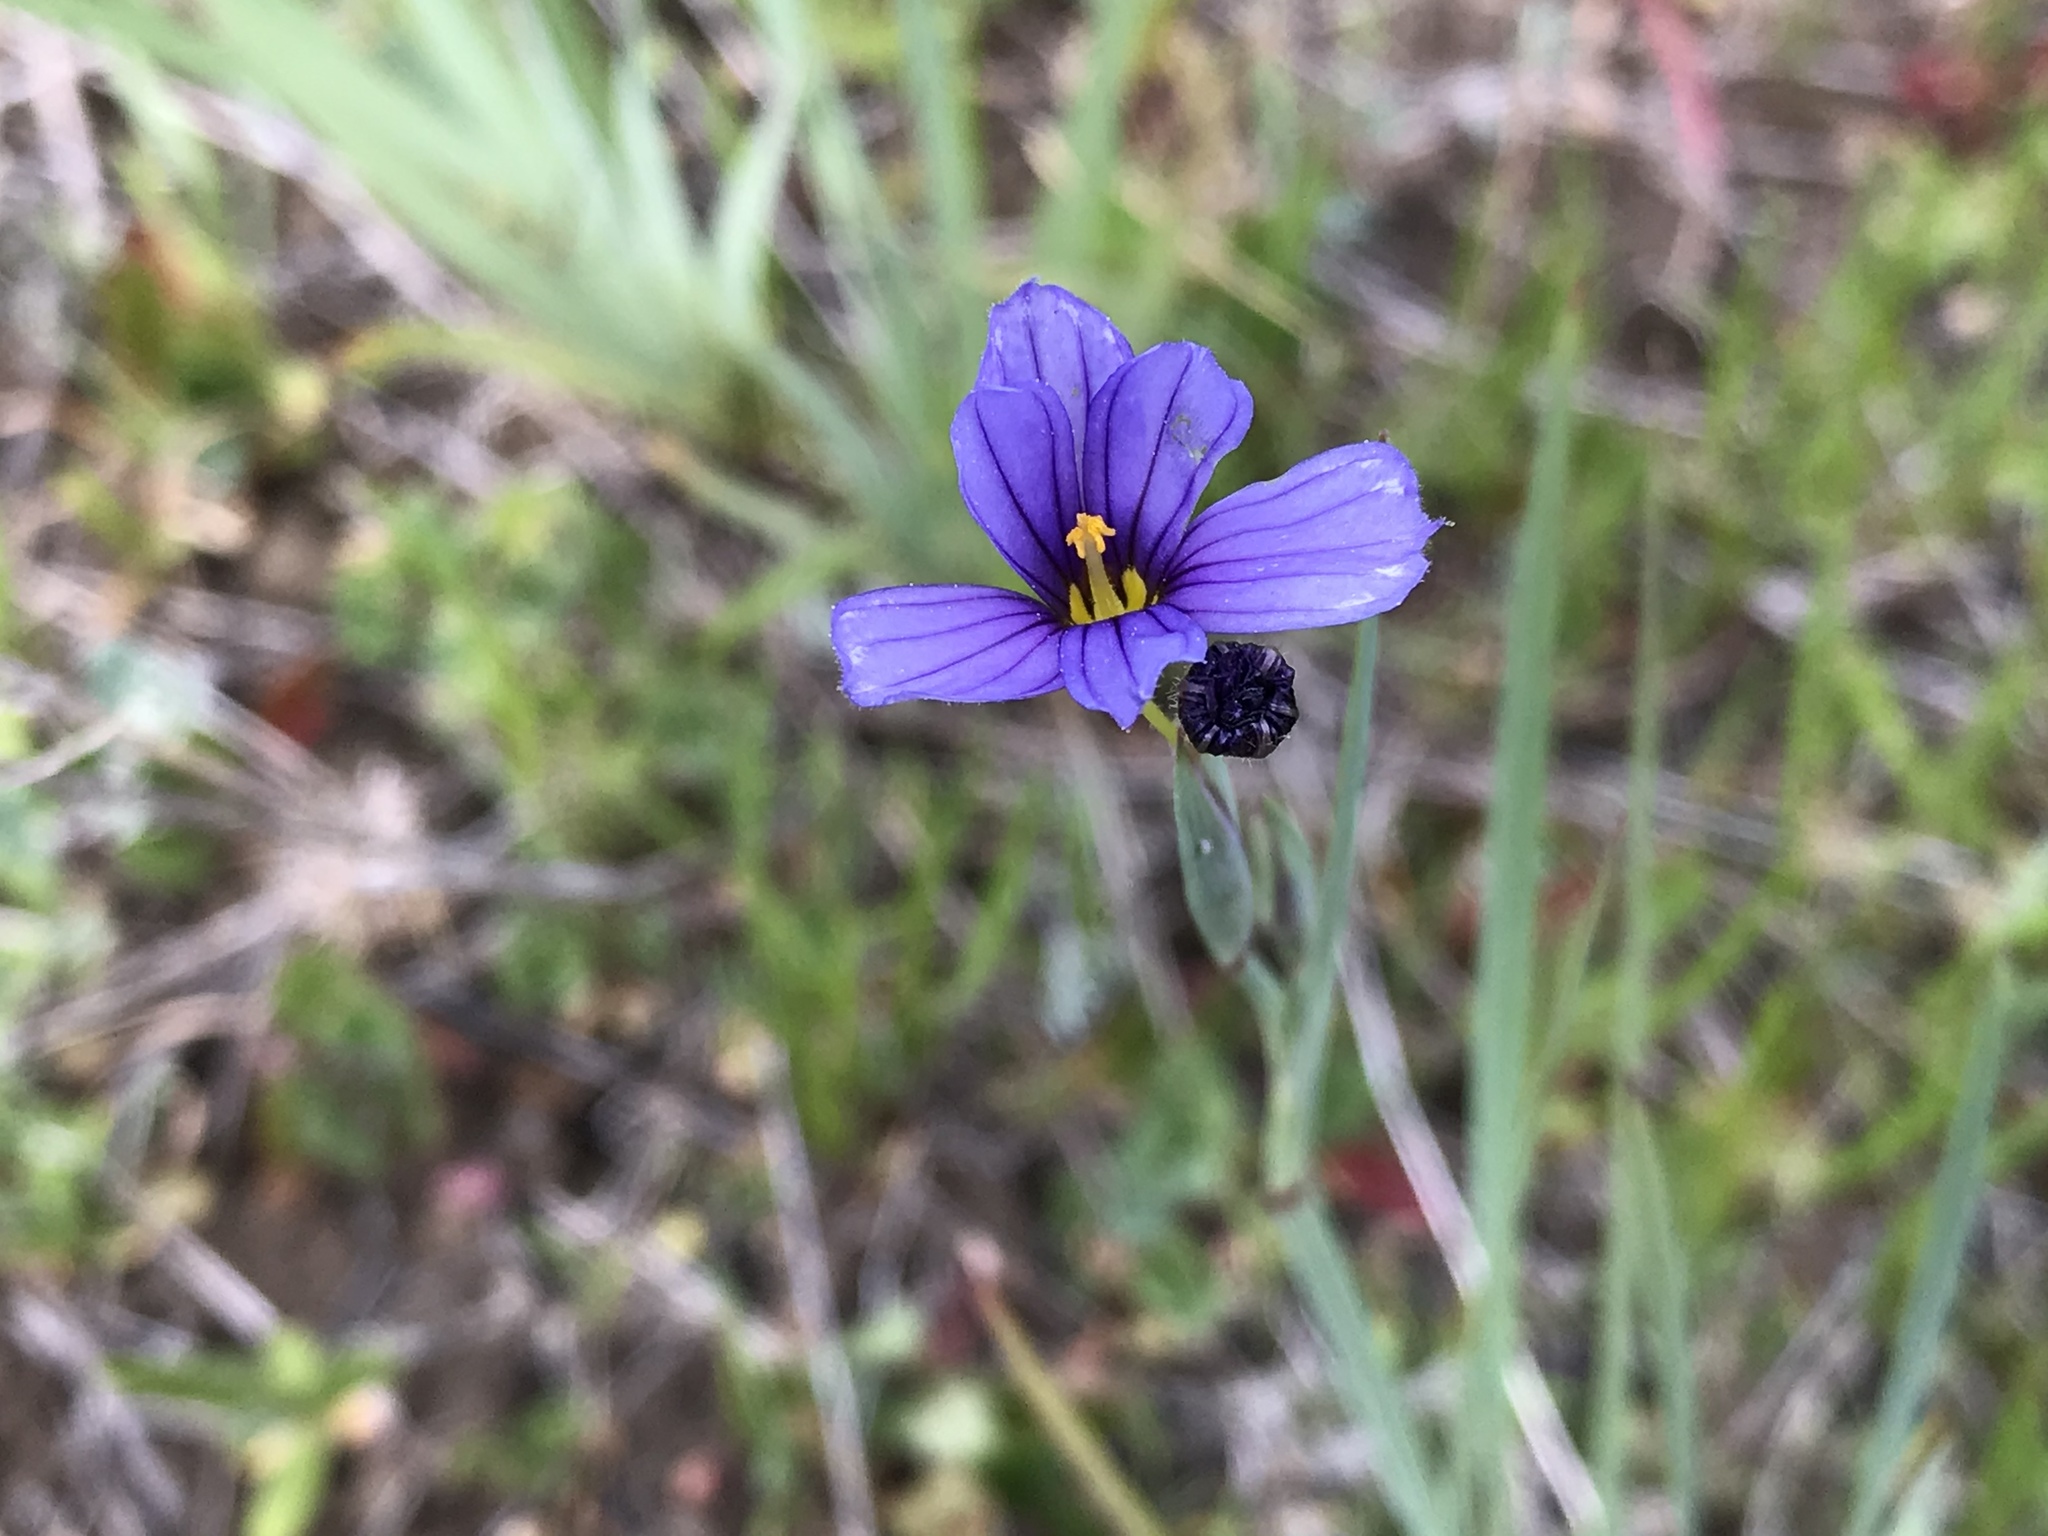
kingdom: Plantae
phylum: Tracheophyta
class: Liliopsida
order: Asparagales
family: Iridaceae
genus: Sisyrinchium
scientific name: Sisyrinchium bellum
